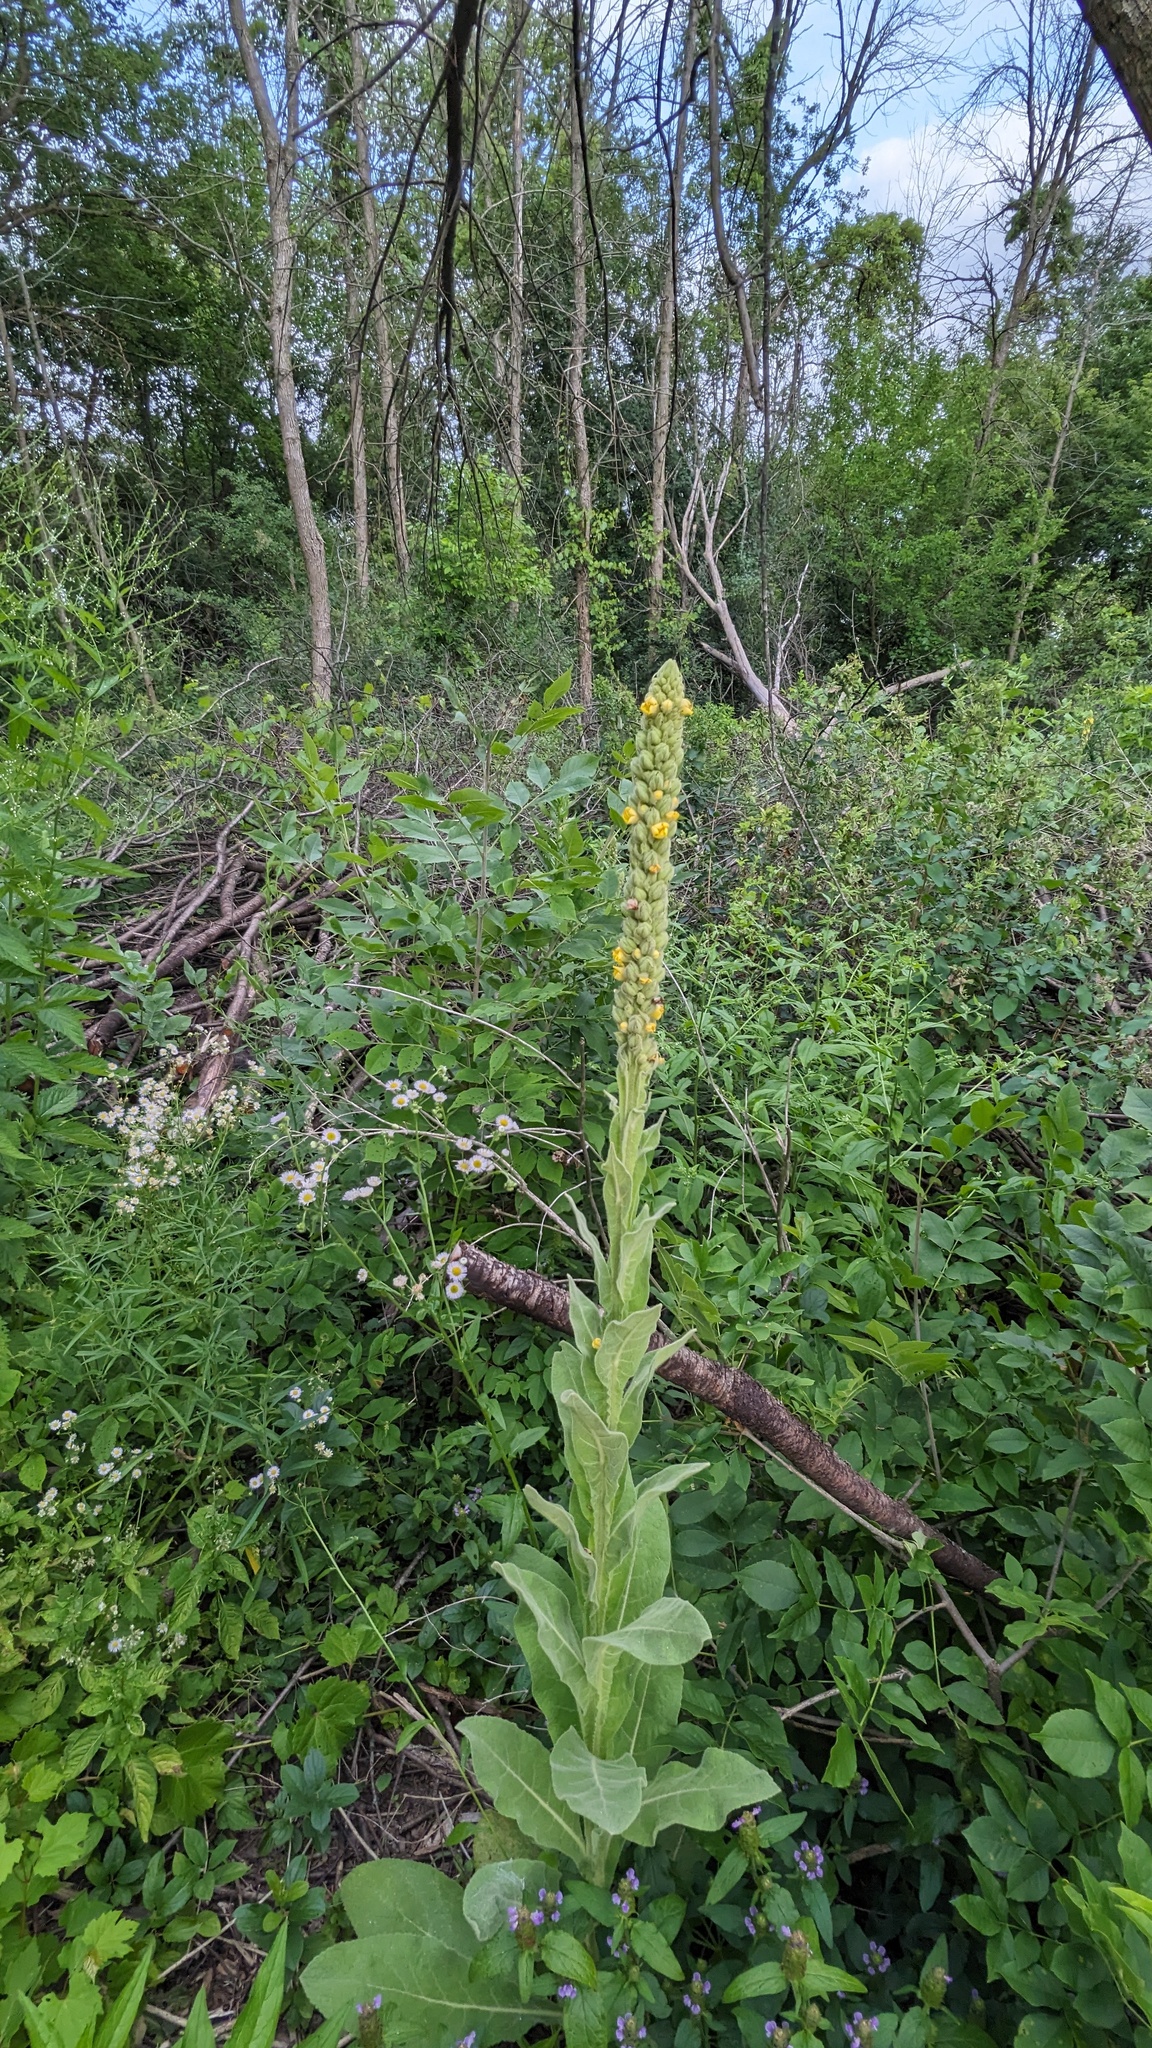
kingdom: Plantae
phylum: Tracheophyta
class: Magnoliopsida
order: Lamiales
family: Scrophulariaceae
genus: Verbascum
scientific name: Verbascum thapsus
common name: Common mullein
